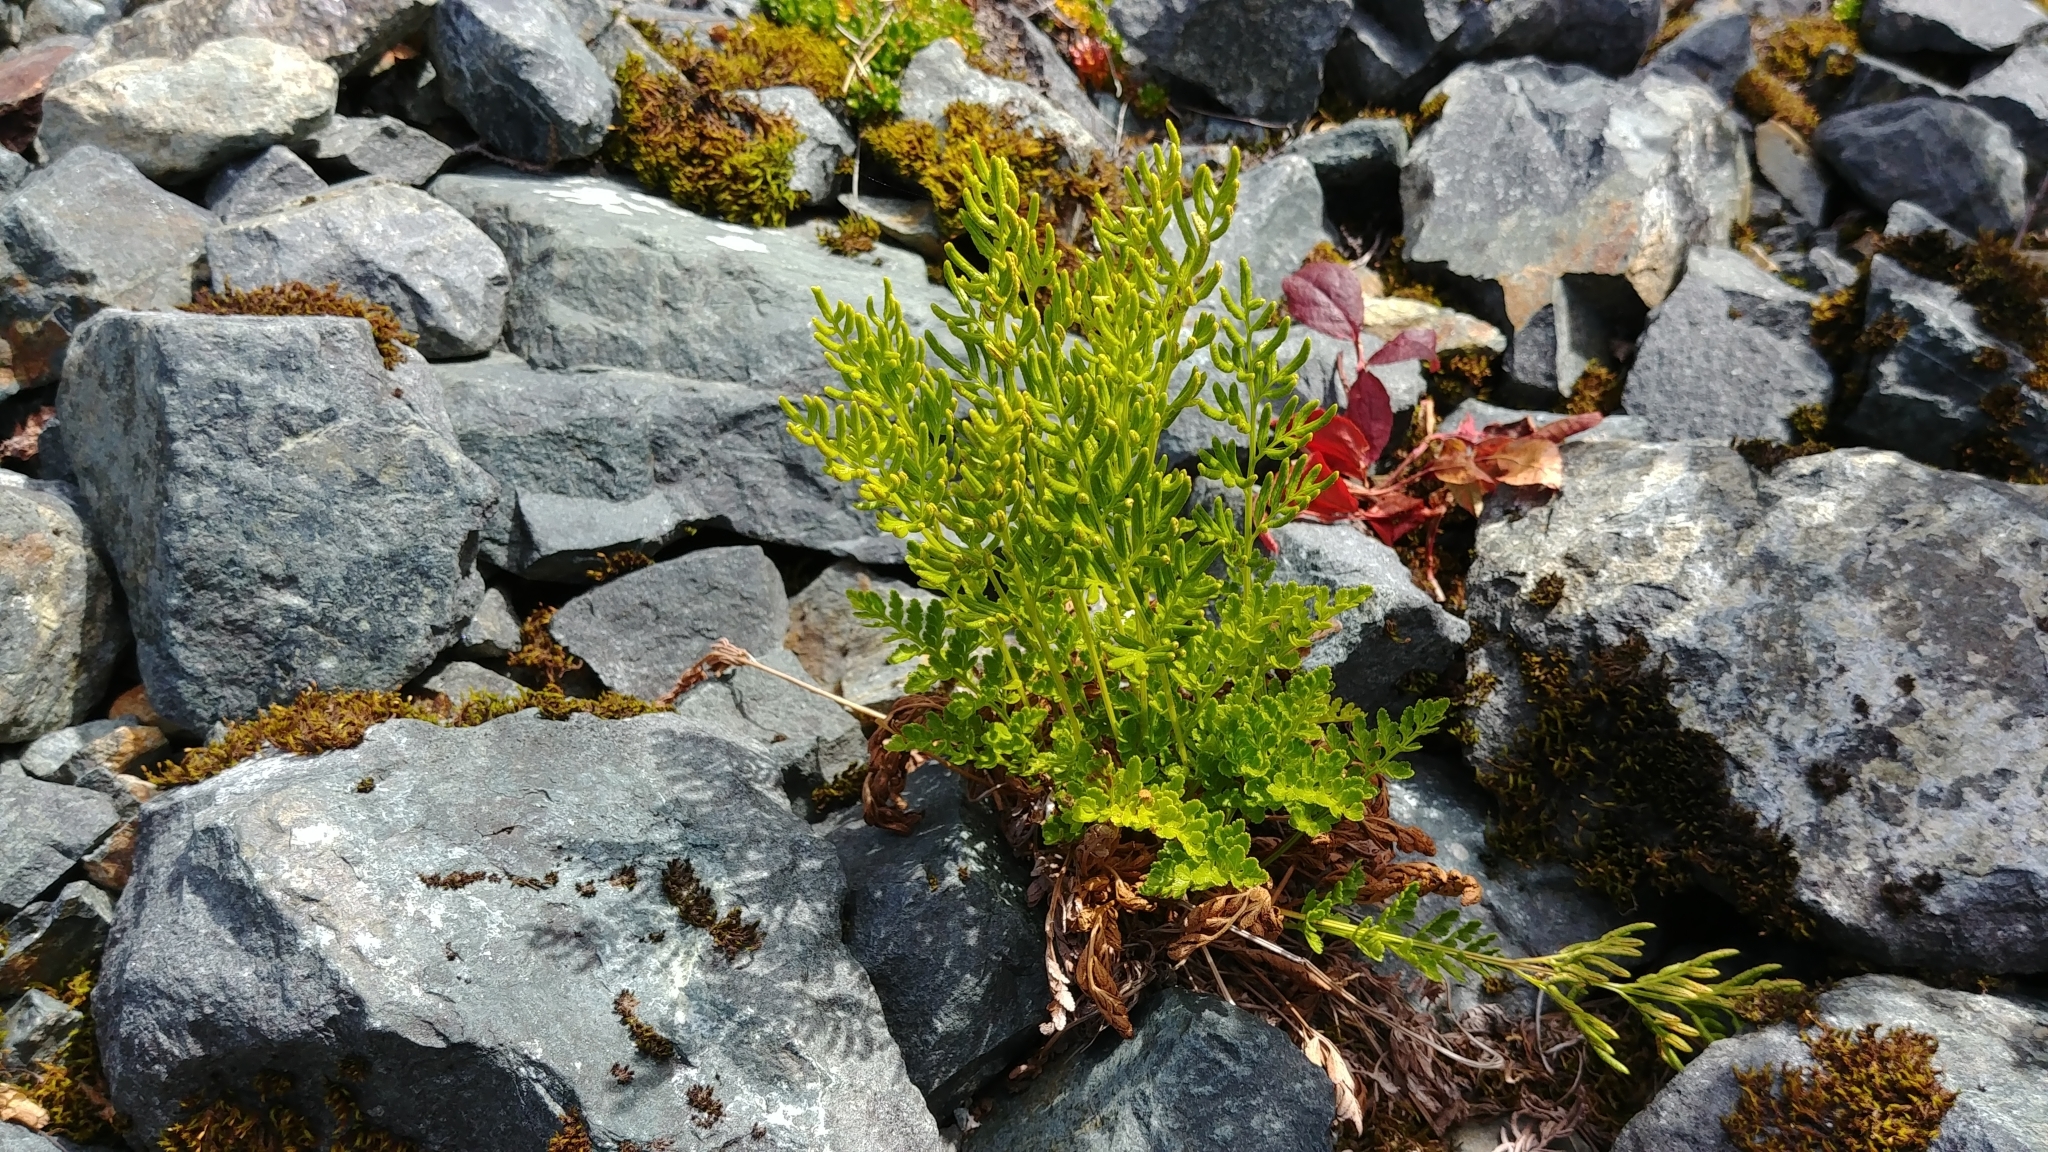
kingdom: Plantae
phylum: Tracheophyta
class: Polypodiopsida
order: Polypodiales
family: Pteridaceae
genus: Cryptogramma
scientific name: Cryptogramma acrostichoides
